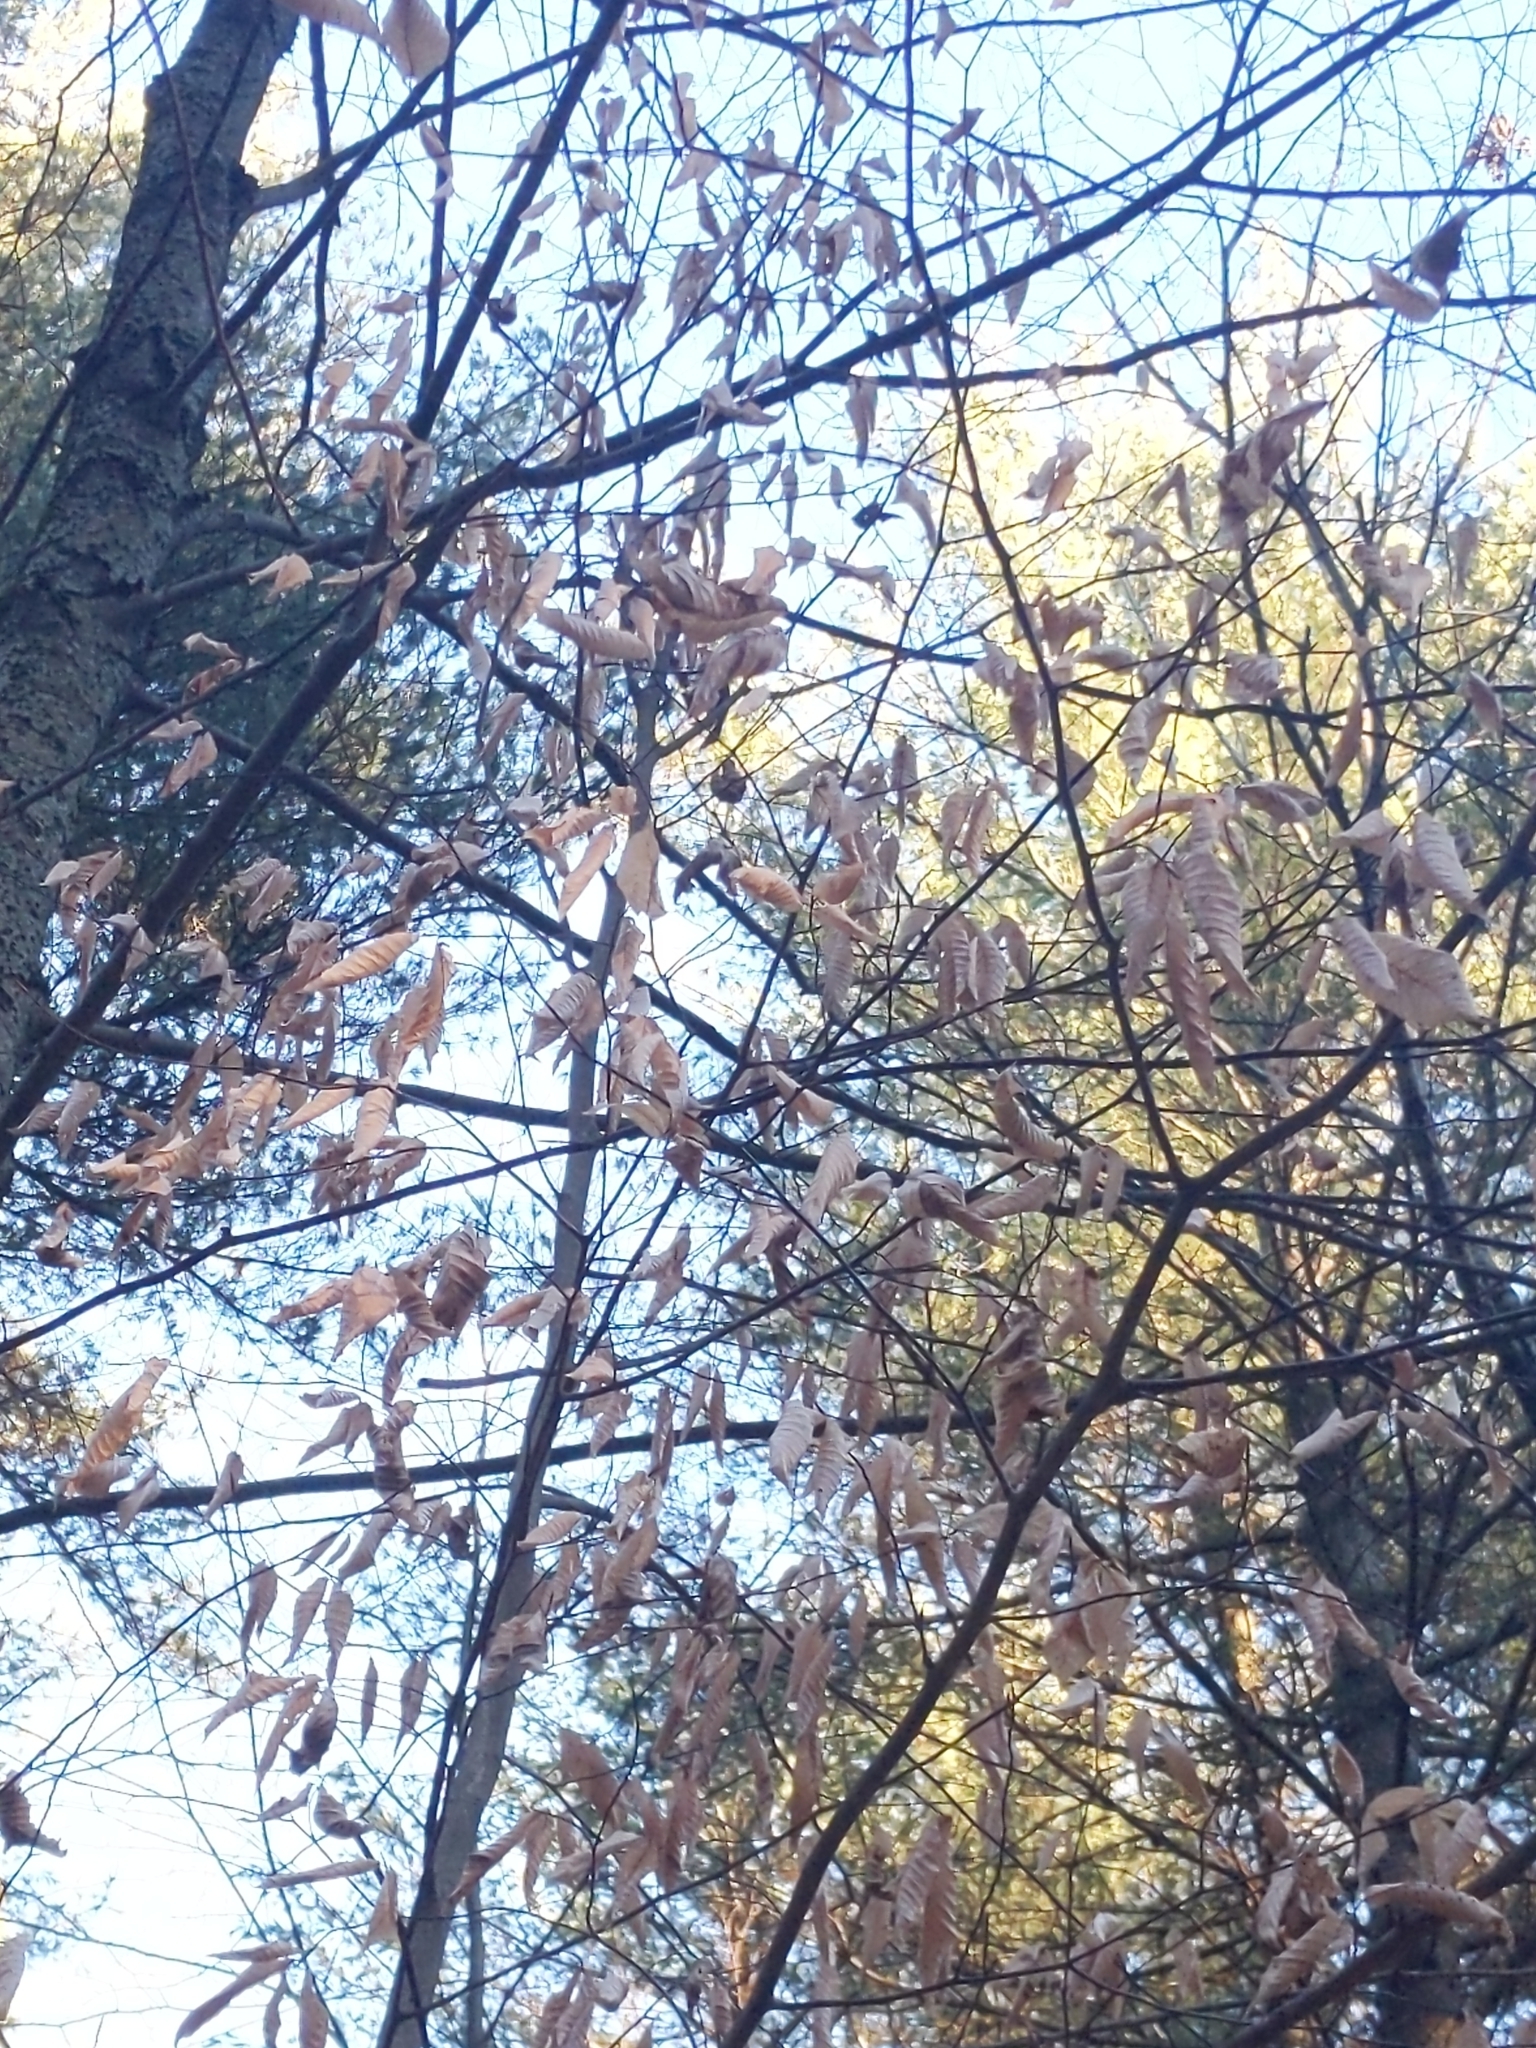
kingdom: Animalia
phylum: Nematoda
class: Chromadorea
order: Rhabditida
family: Anguinidae
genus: Litylenchus
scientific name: Litylenchus crenatae
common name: Beech leaf disease
